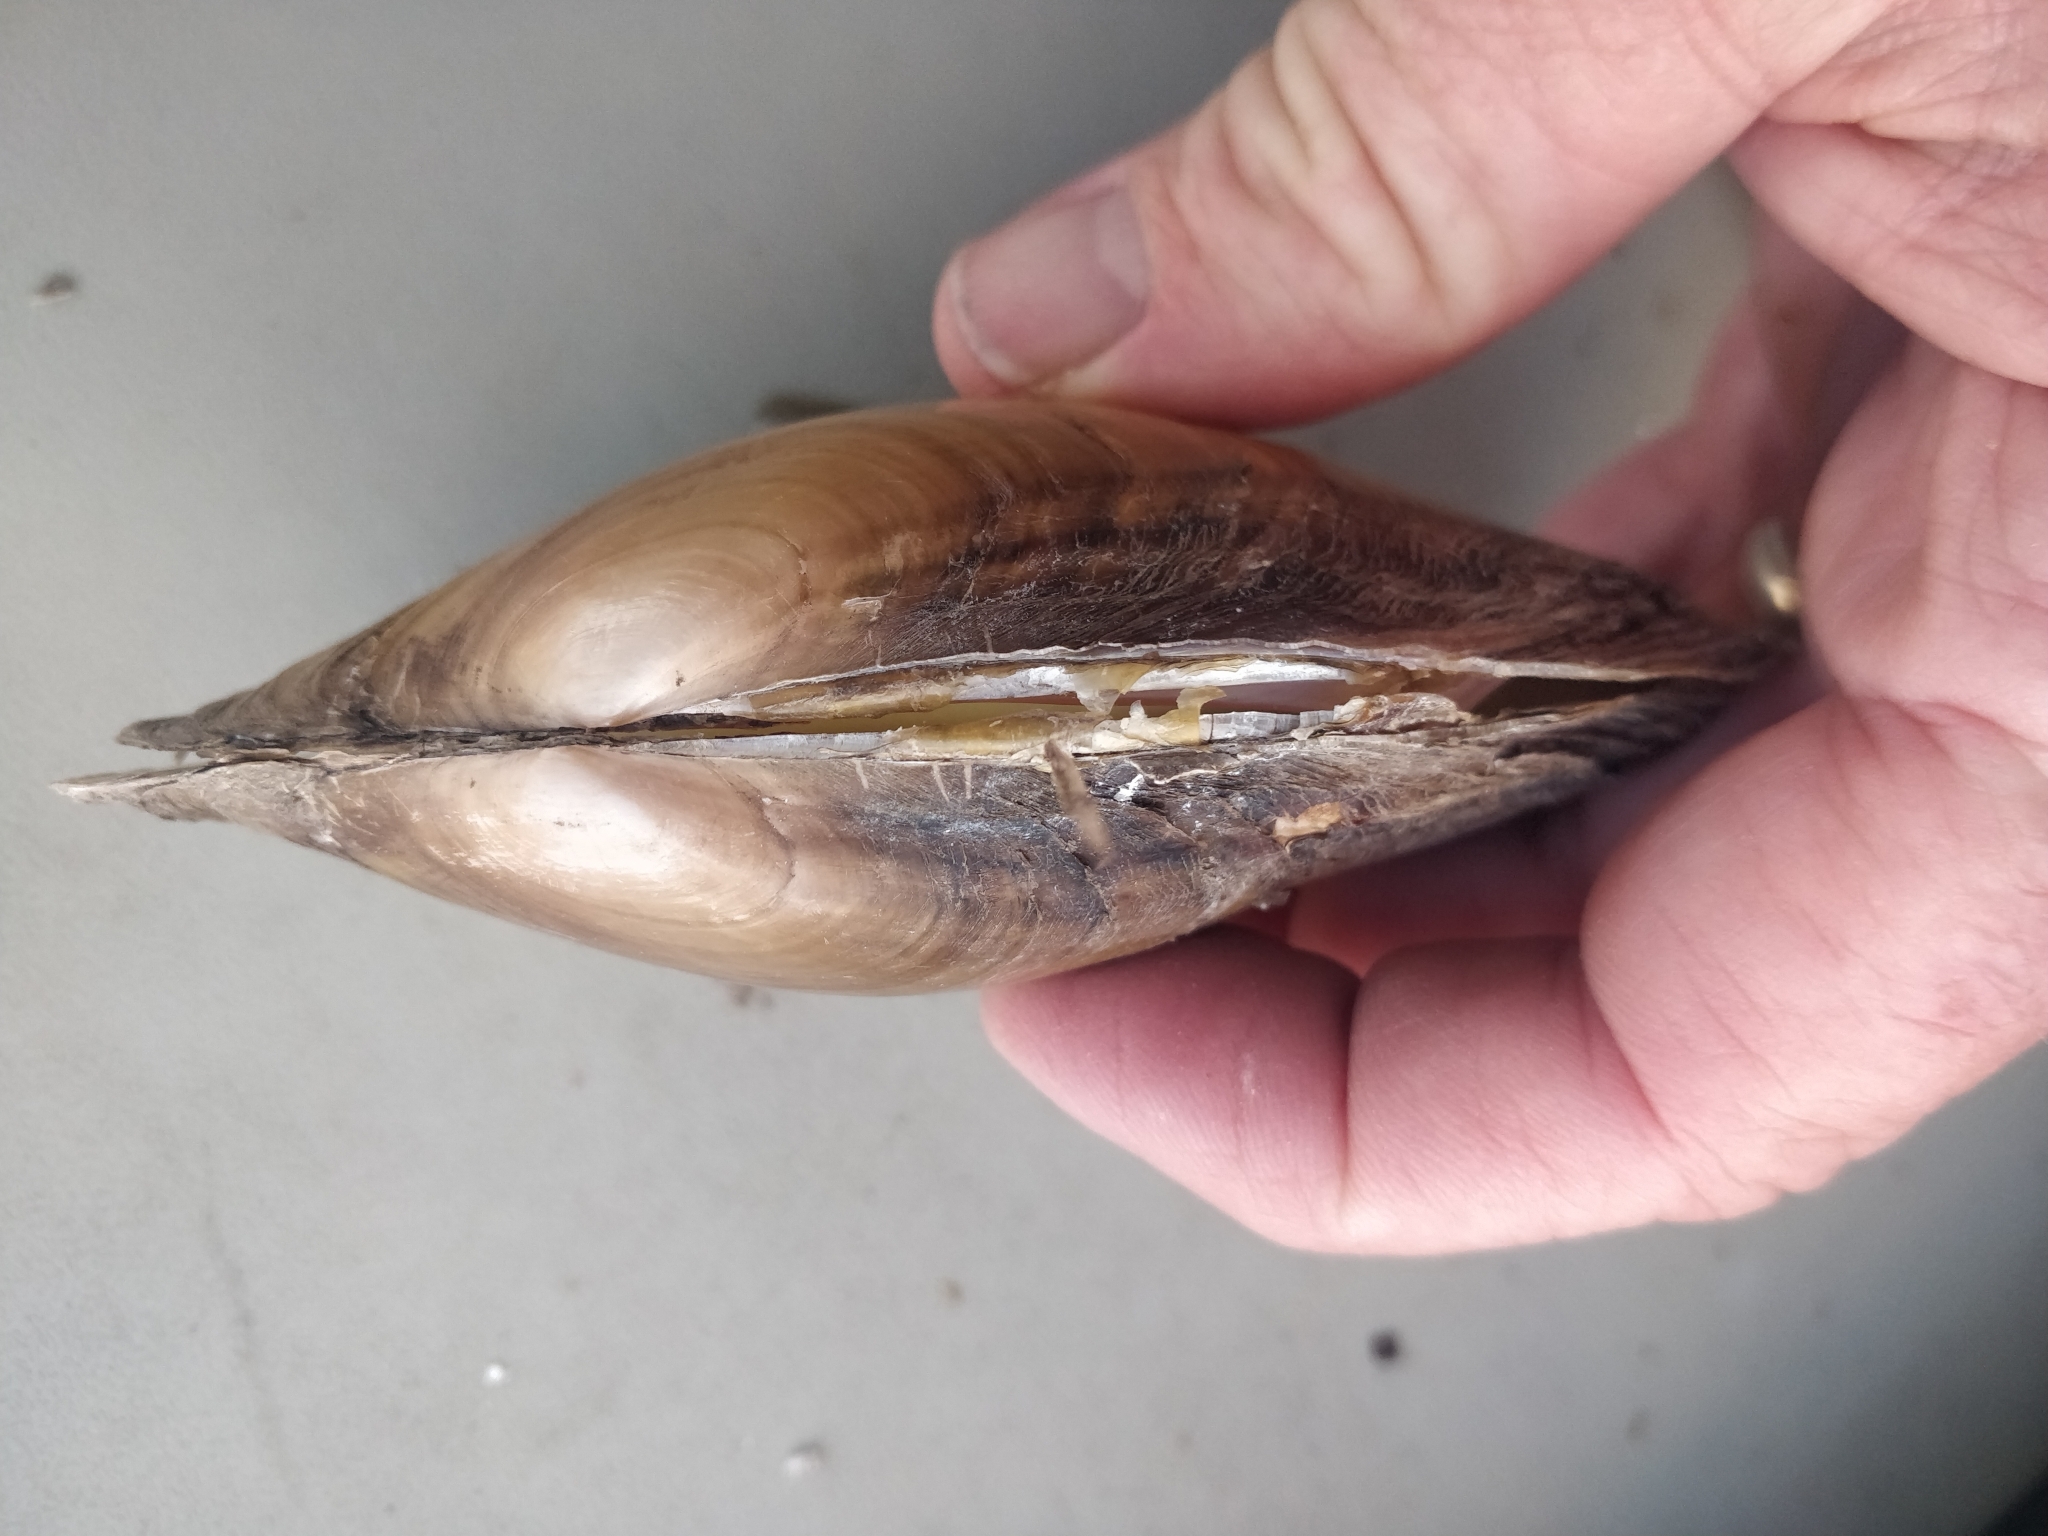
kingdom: Animalia
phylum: Mollusca
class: Bivalvia
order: Unionida
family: Unionidae
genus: Potamilus
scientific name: Potamilus fragilis
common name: Fragile papershell
